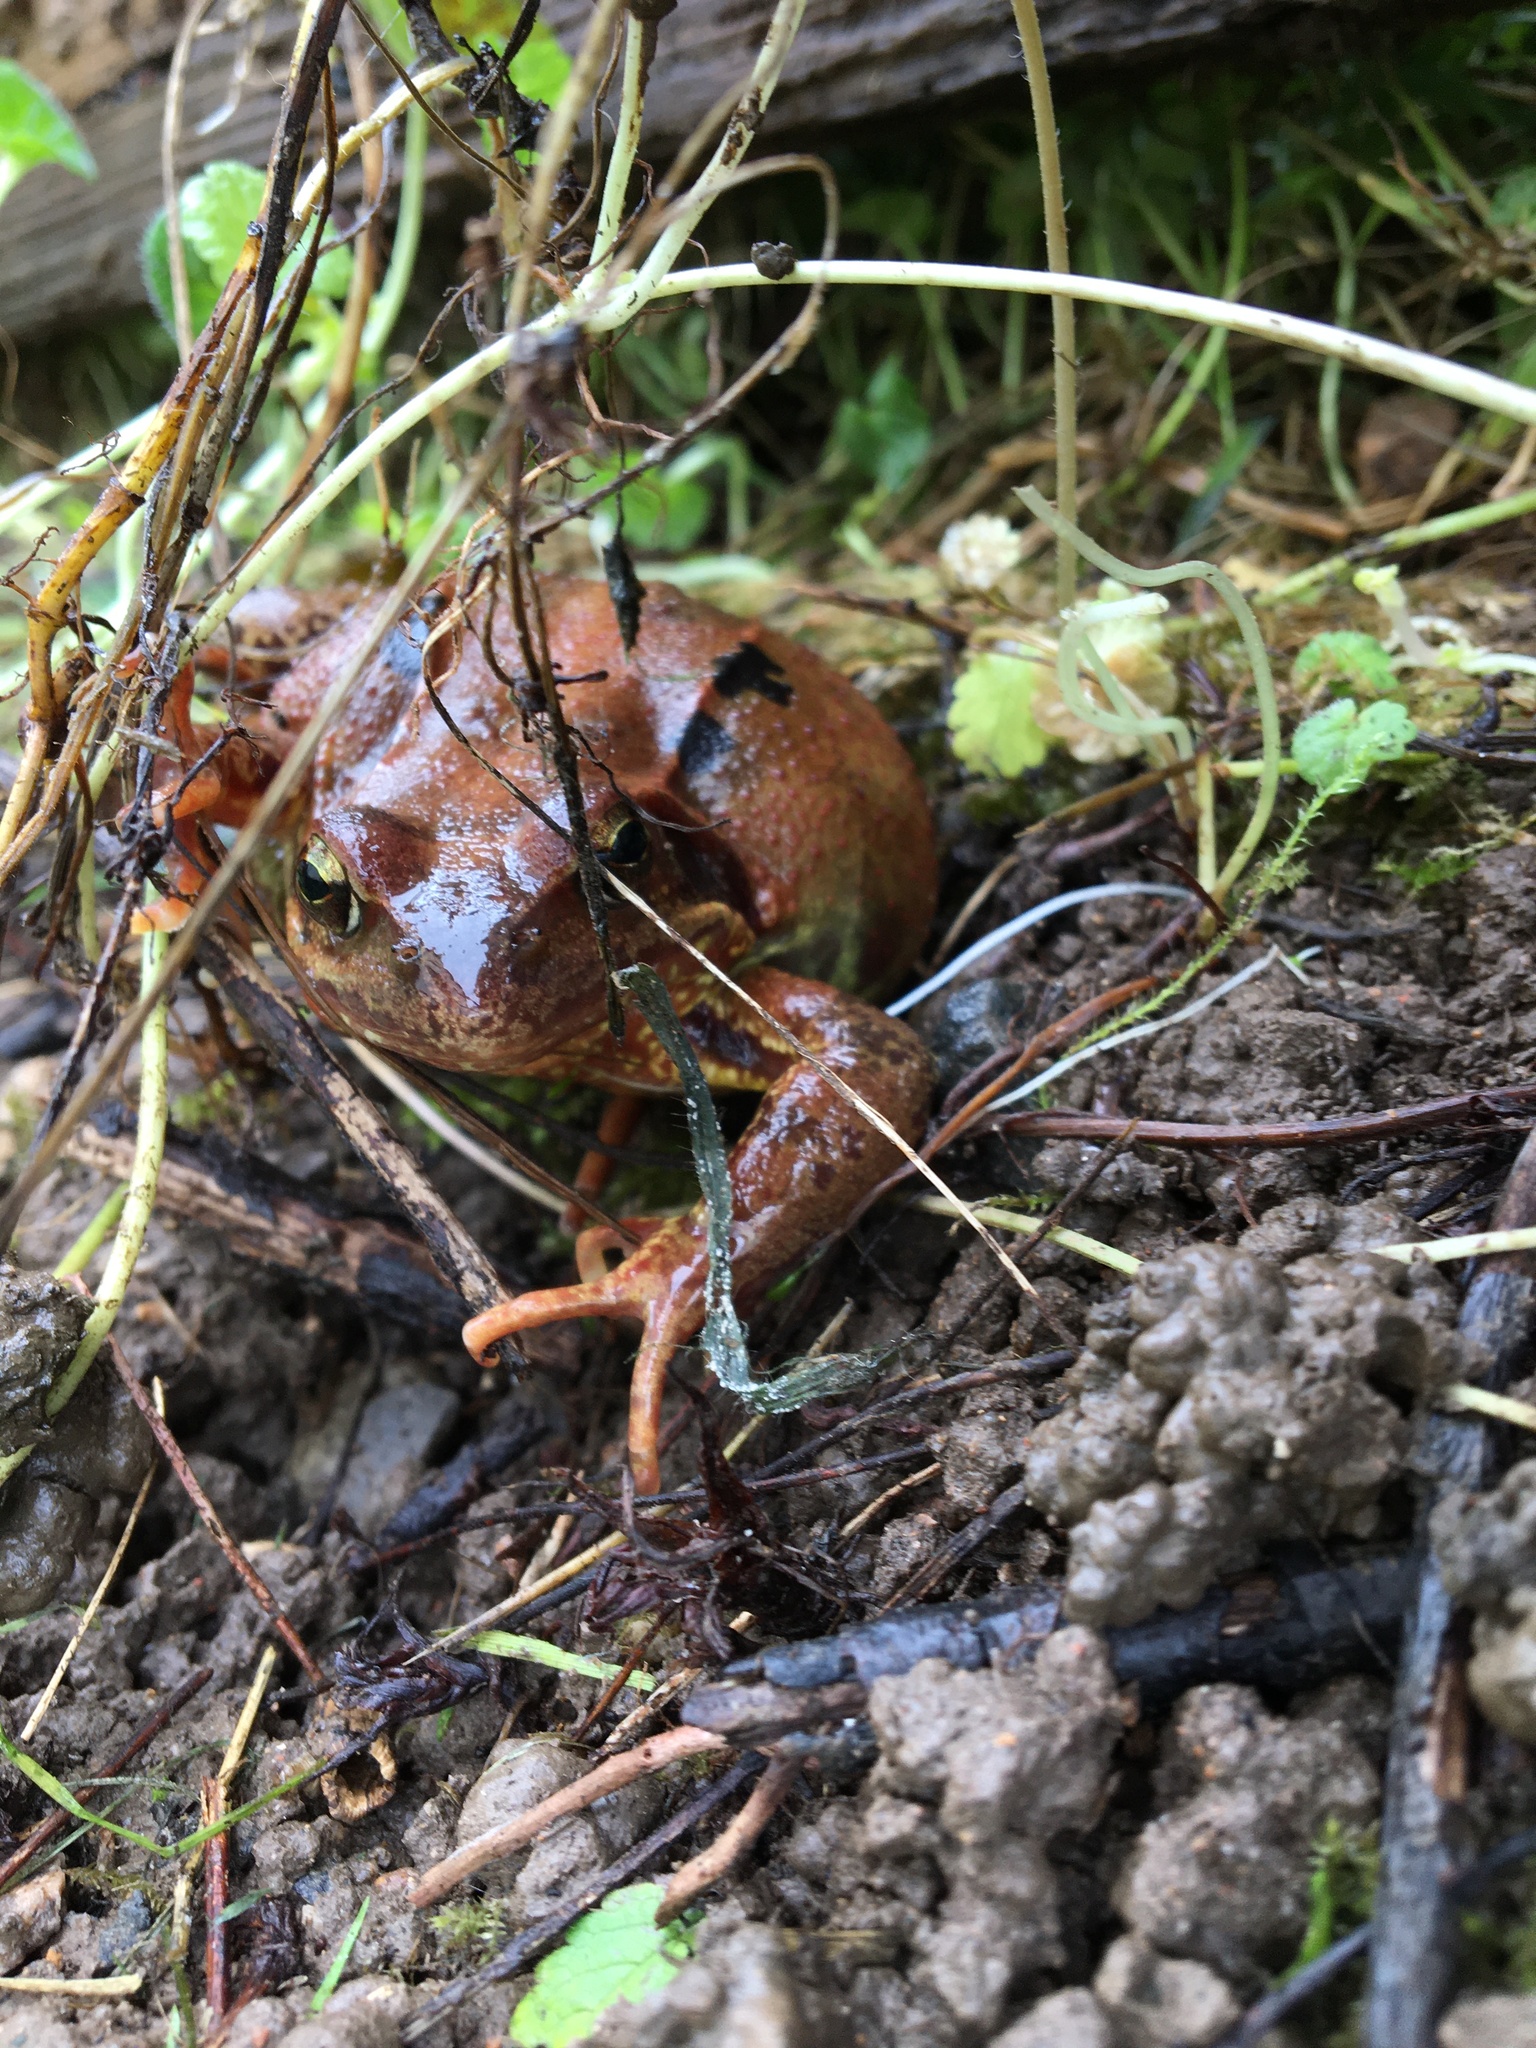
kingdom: Animalia
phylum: Chordata
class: Amphibia
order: Anura
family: Ranidae
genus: Rana
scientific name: Rana temporaria
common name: Common frog
